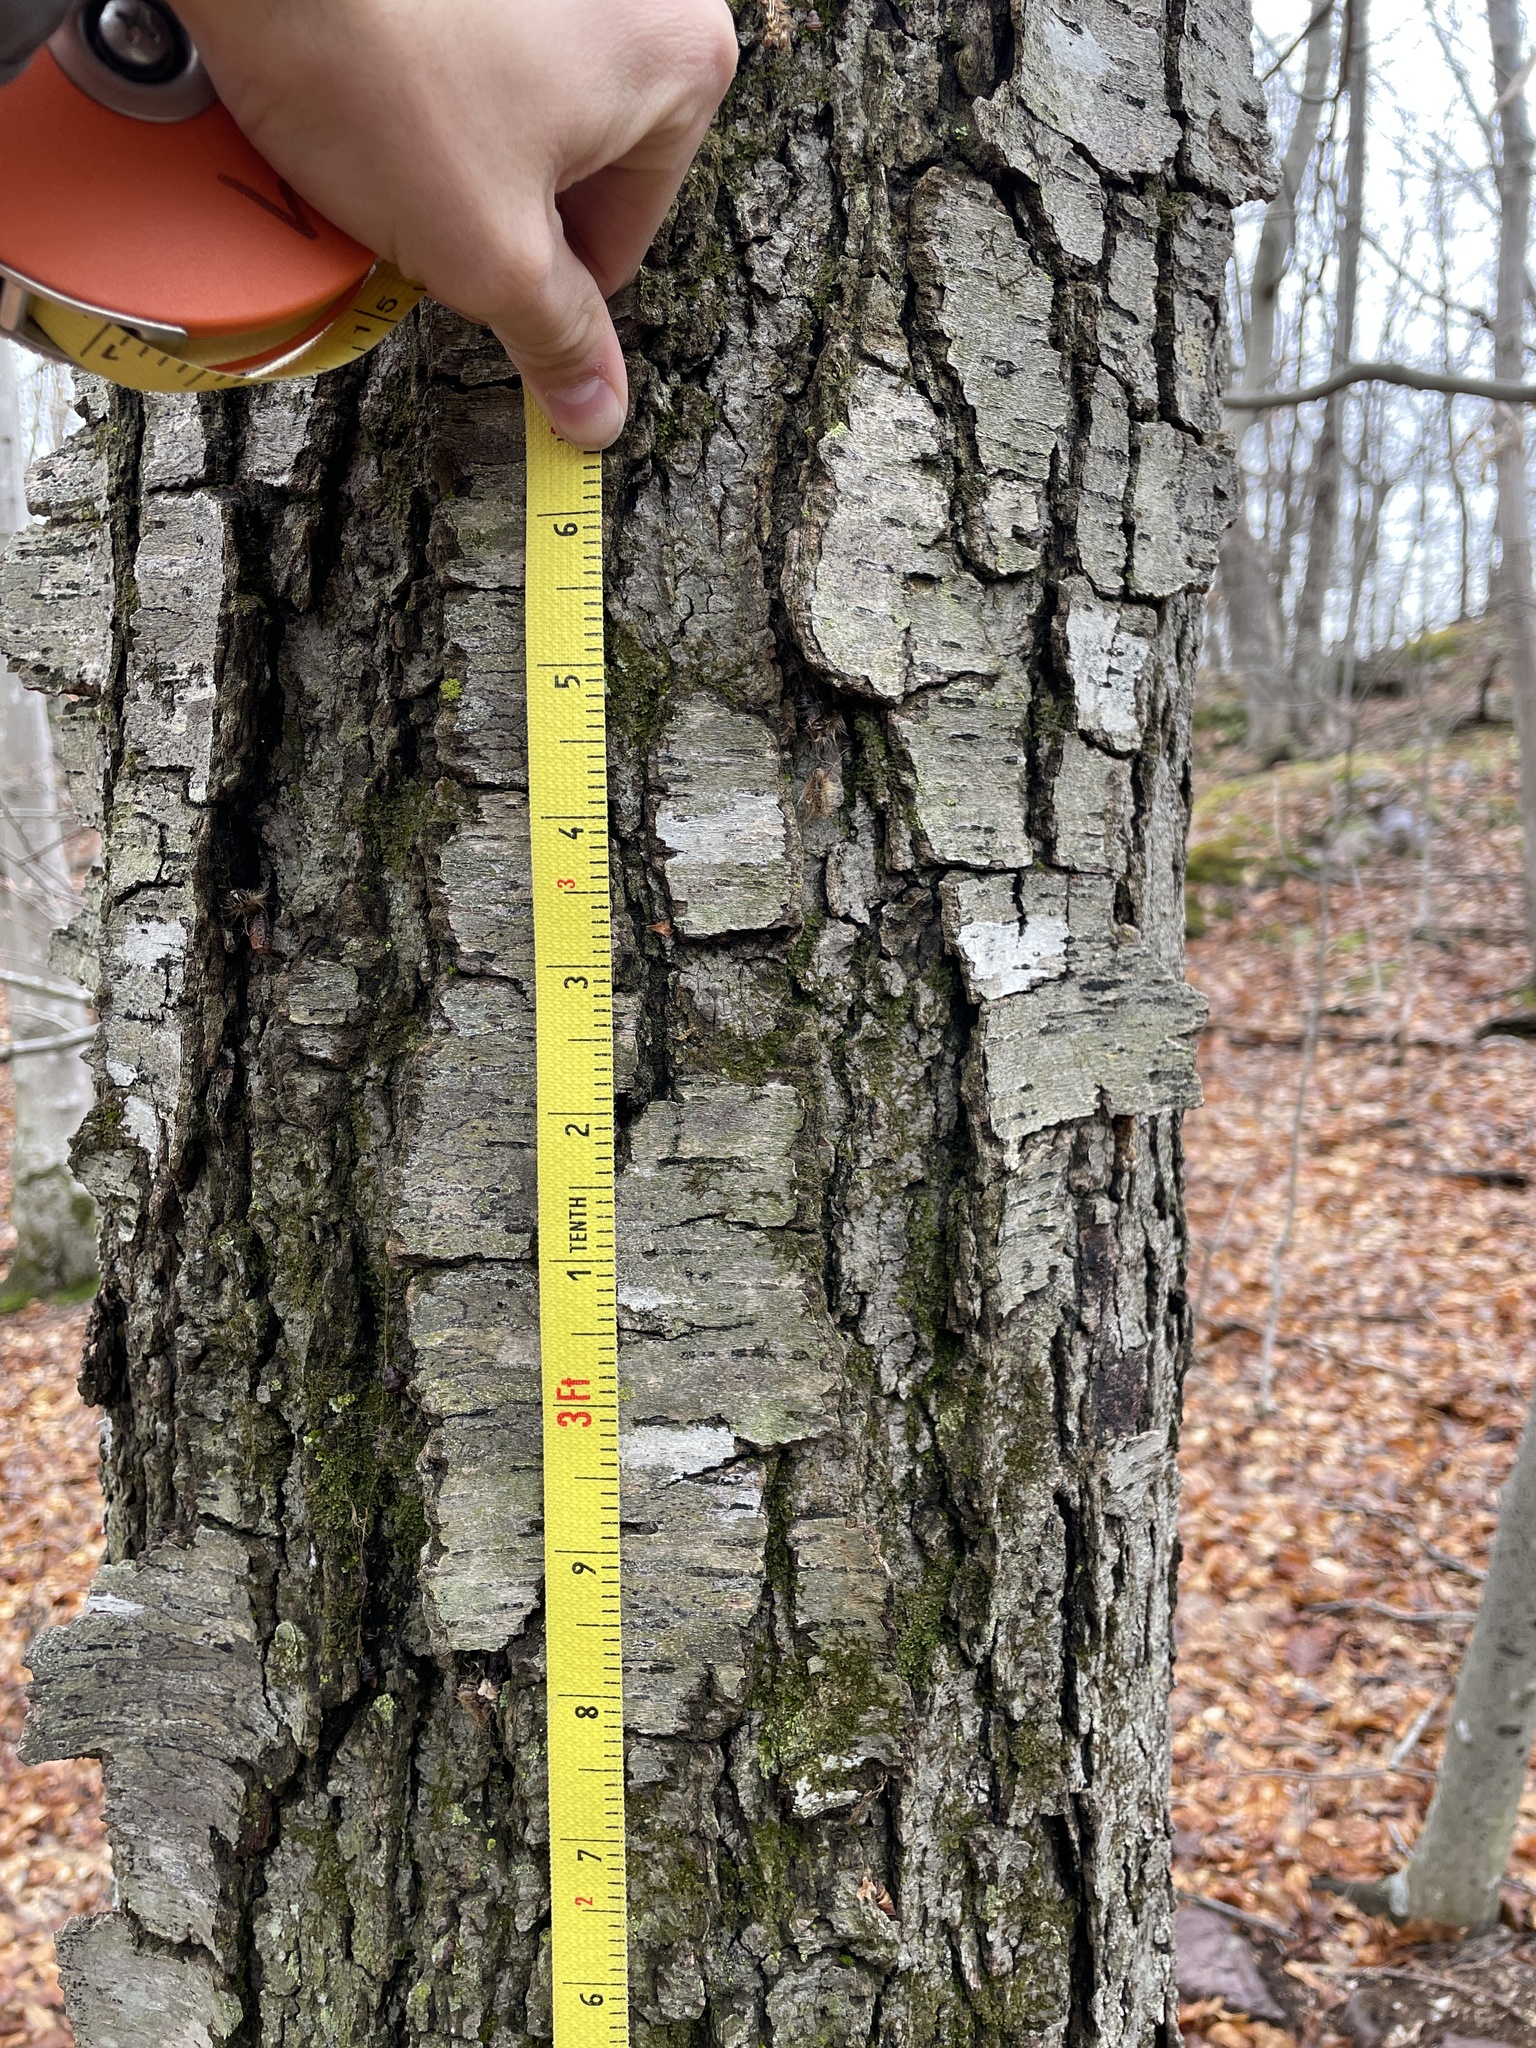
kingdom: Plantae
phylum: Tracheophyta
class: Magnoliopsida
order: Fagales
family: Betulaceae
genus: Betula
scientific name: Betula lenta
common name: Black birch
